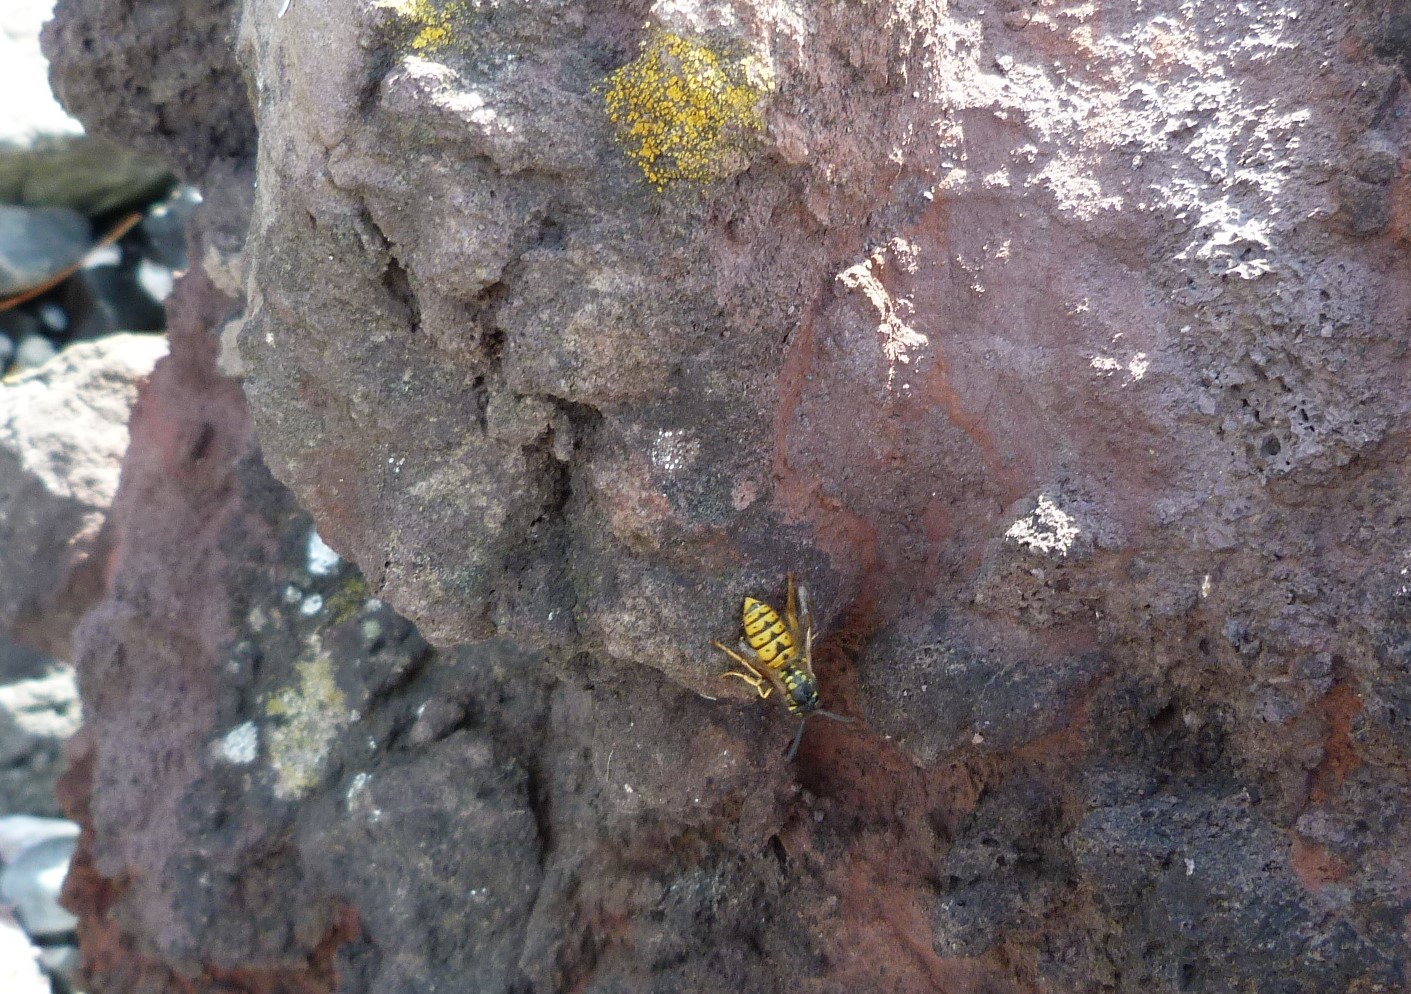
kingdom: Animalia
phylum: Arthropoda
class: Insecta
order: Hymenoptera
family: Vespidae
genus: Vespula
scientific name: Vespula germanica
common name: German wasp
